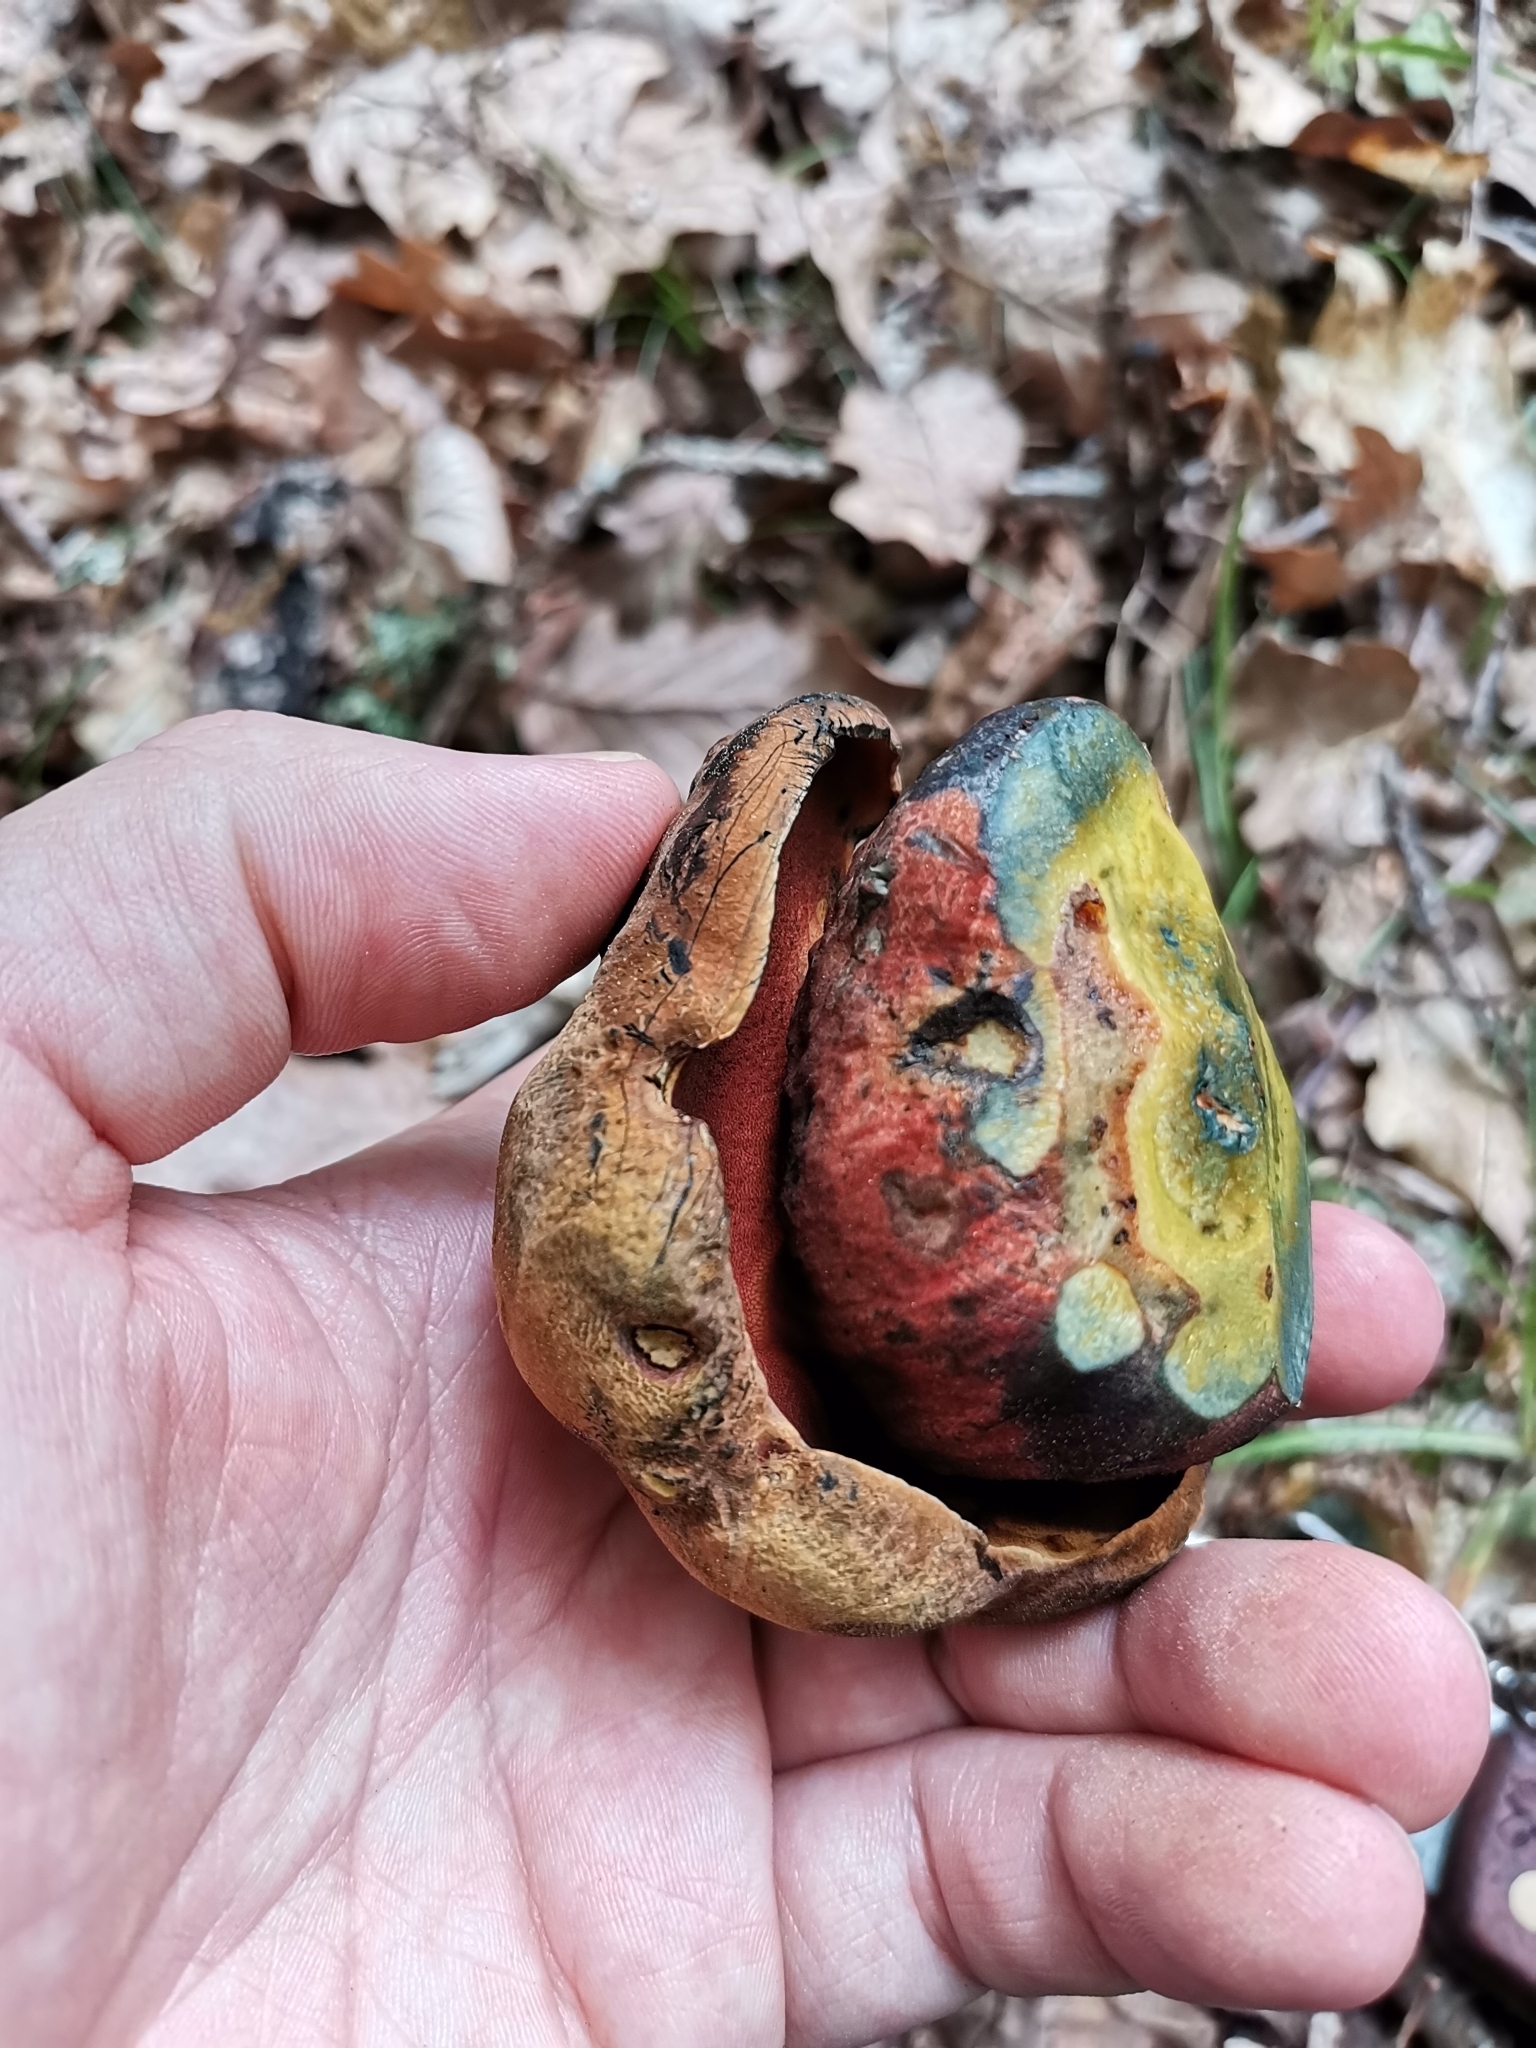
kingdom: Fungi
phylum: Basidiomycota
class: Agaricomycetes
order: Boletales
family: Boletaceae
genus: Neoboletus
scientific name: Neoboletus luridiformis
